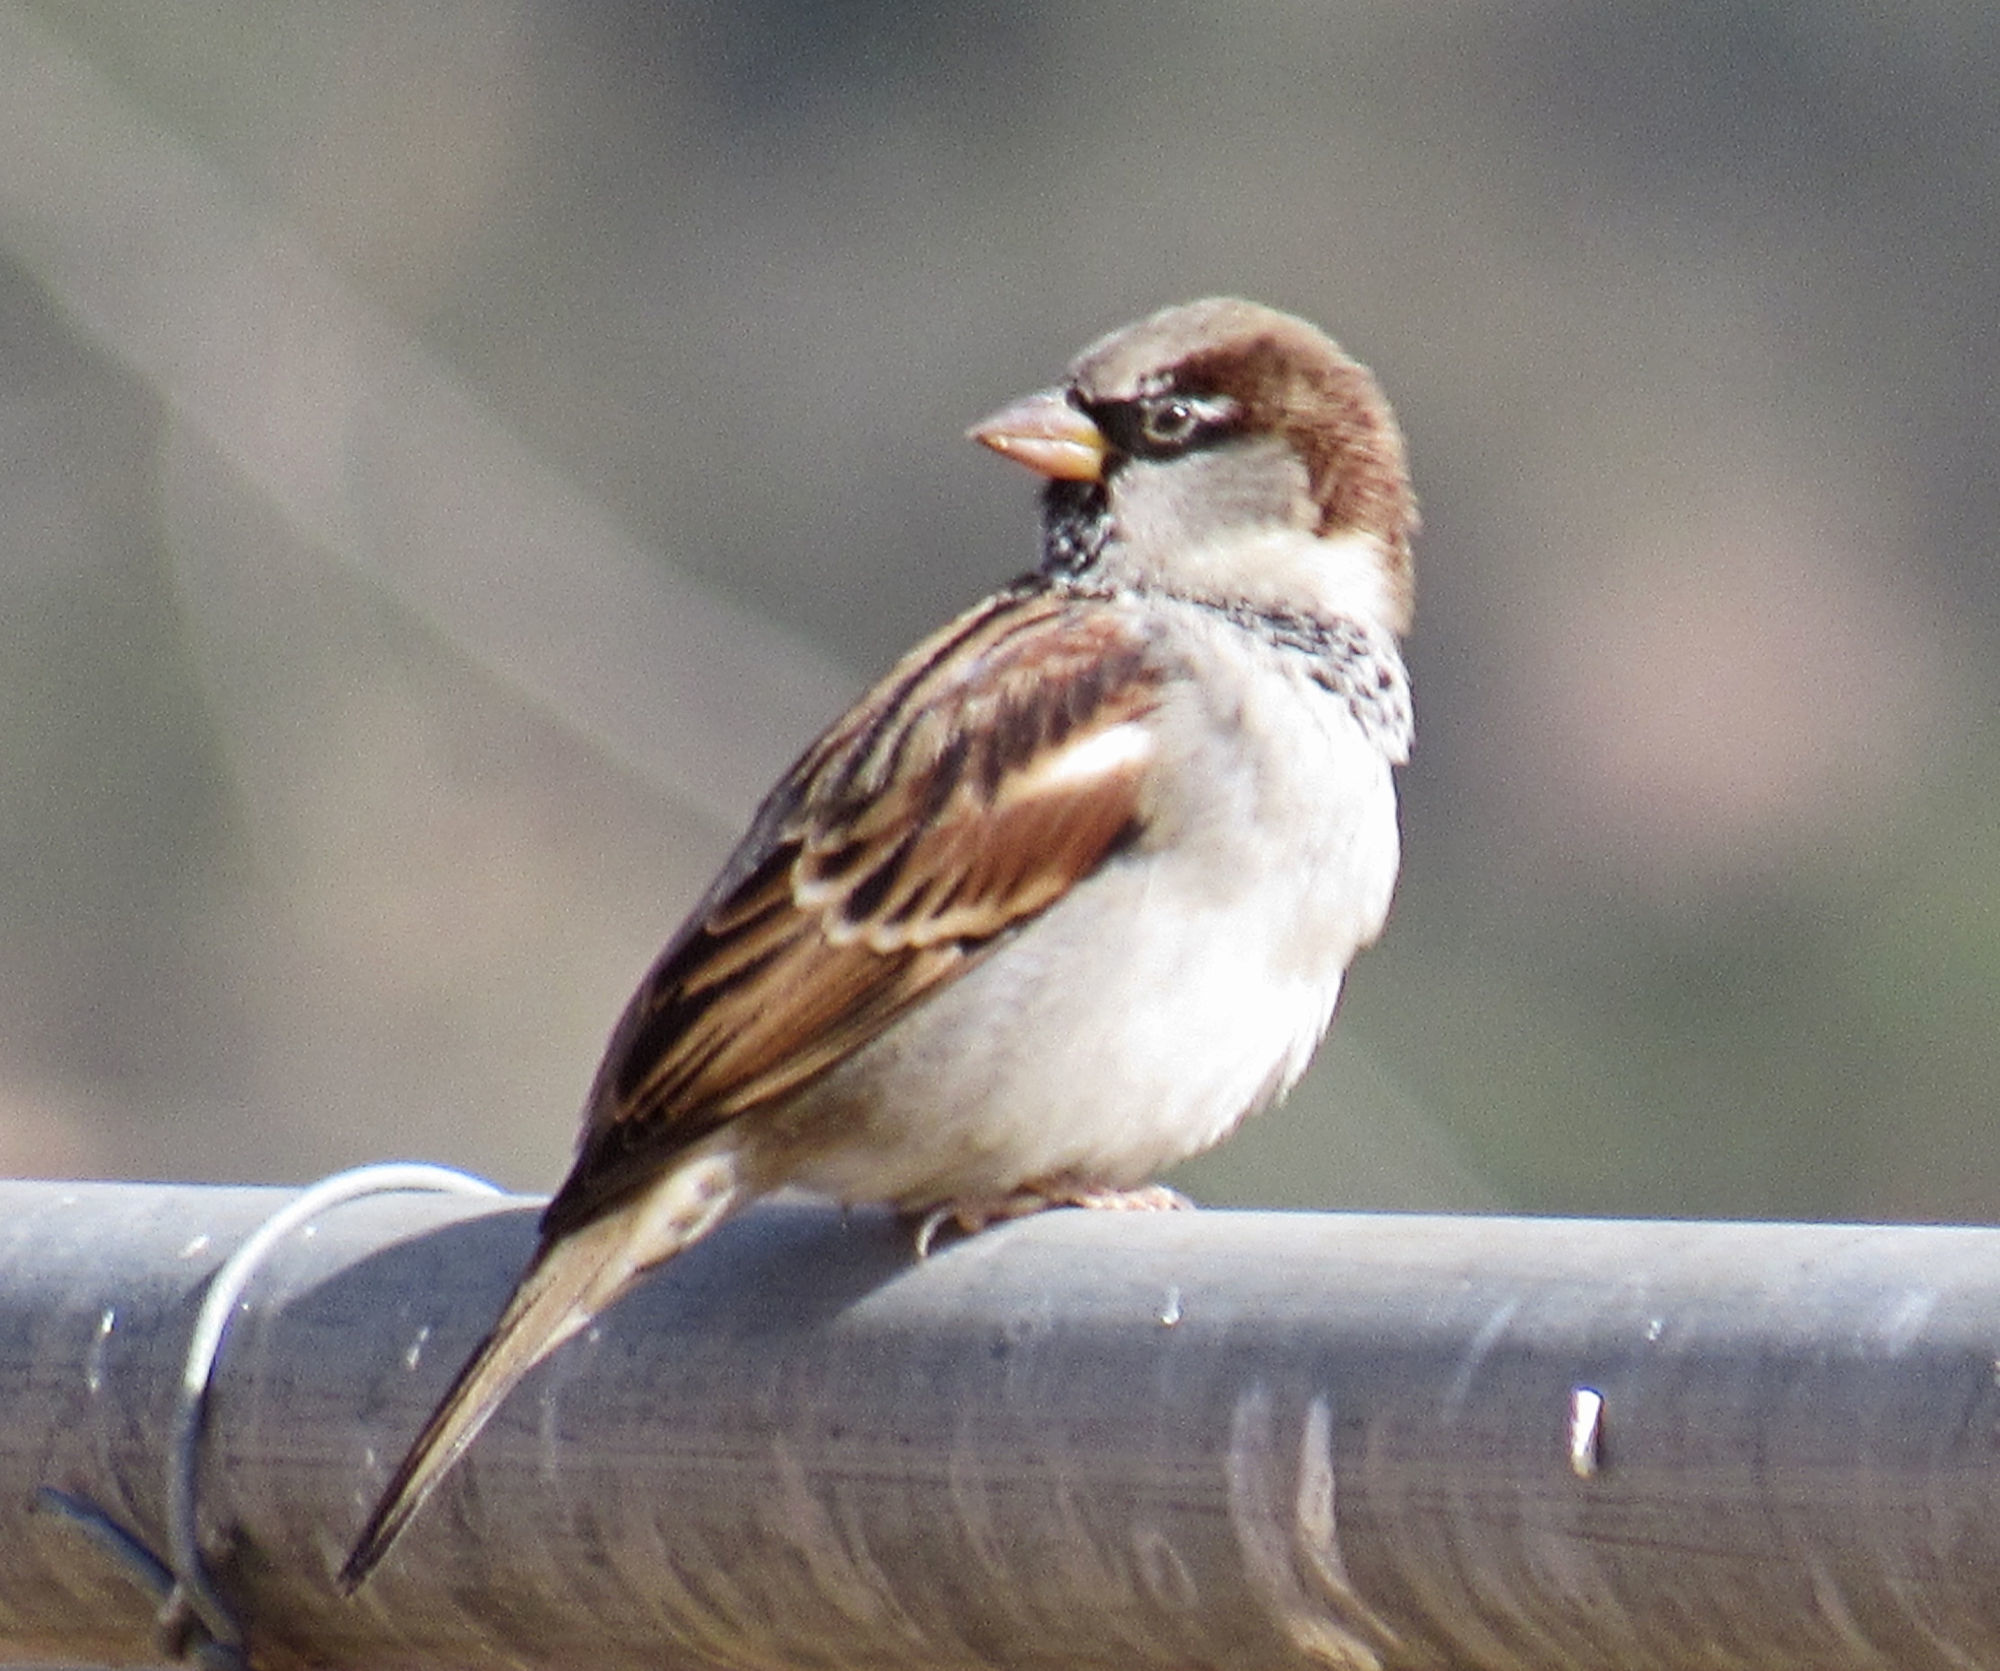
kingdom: Animalia
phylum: Chordata
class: Aves
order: Passeriformes
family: Passeridae
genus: Passer
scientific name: Passer domesticus
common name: House sparrow
